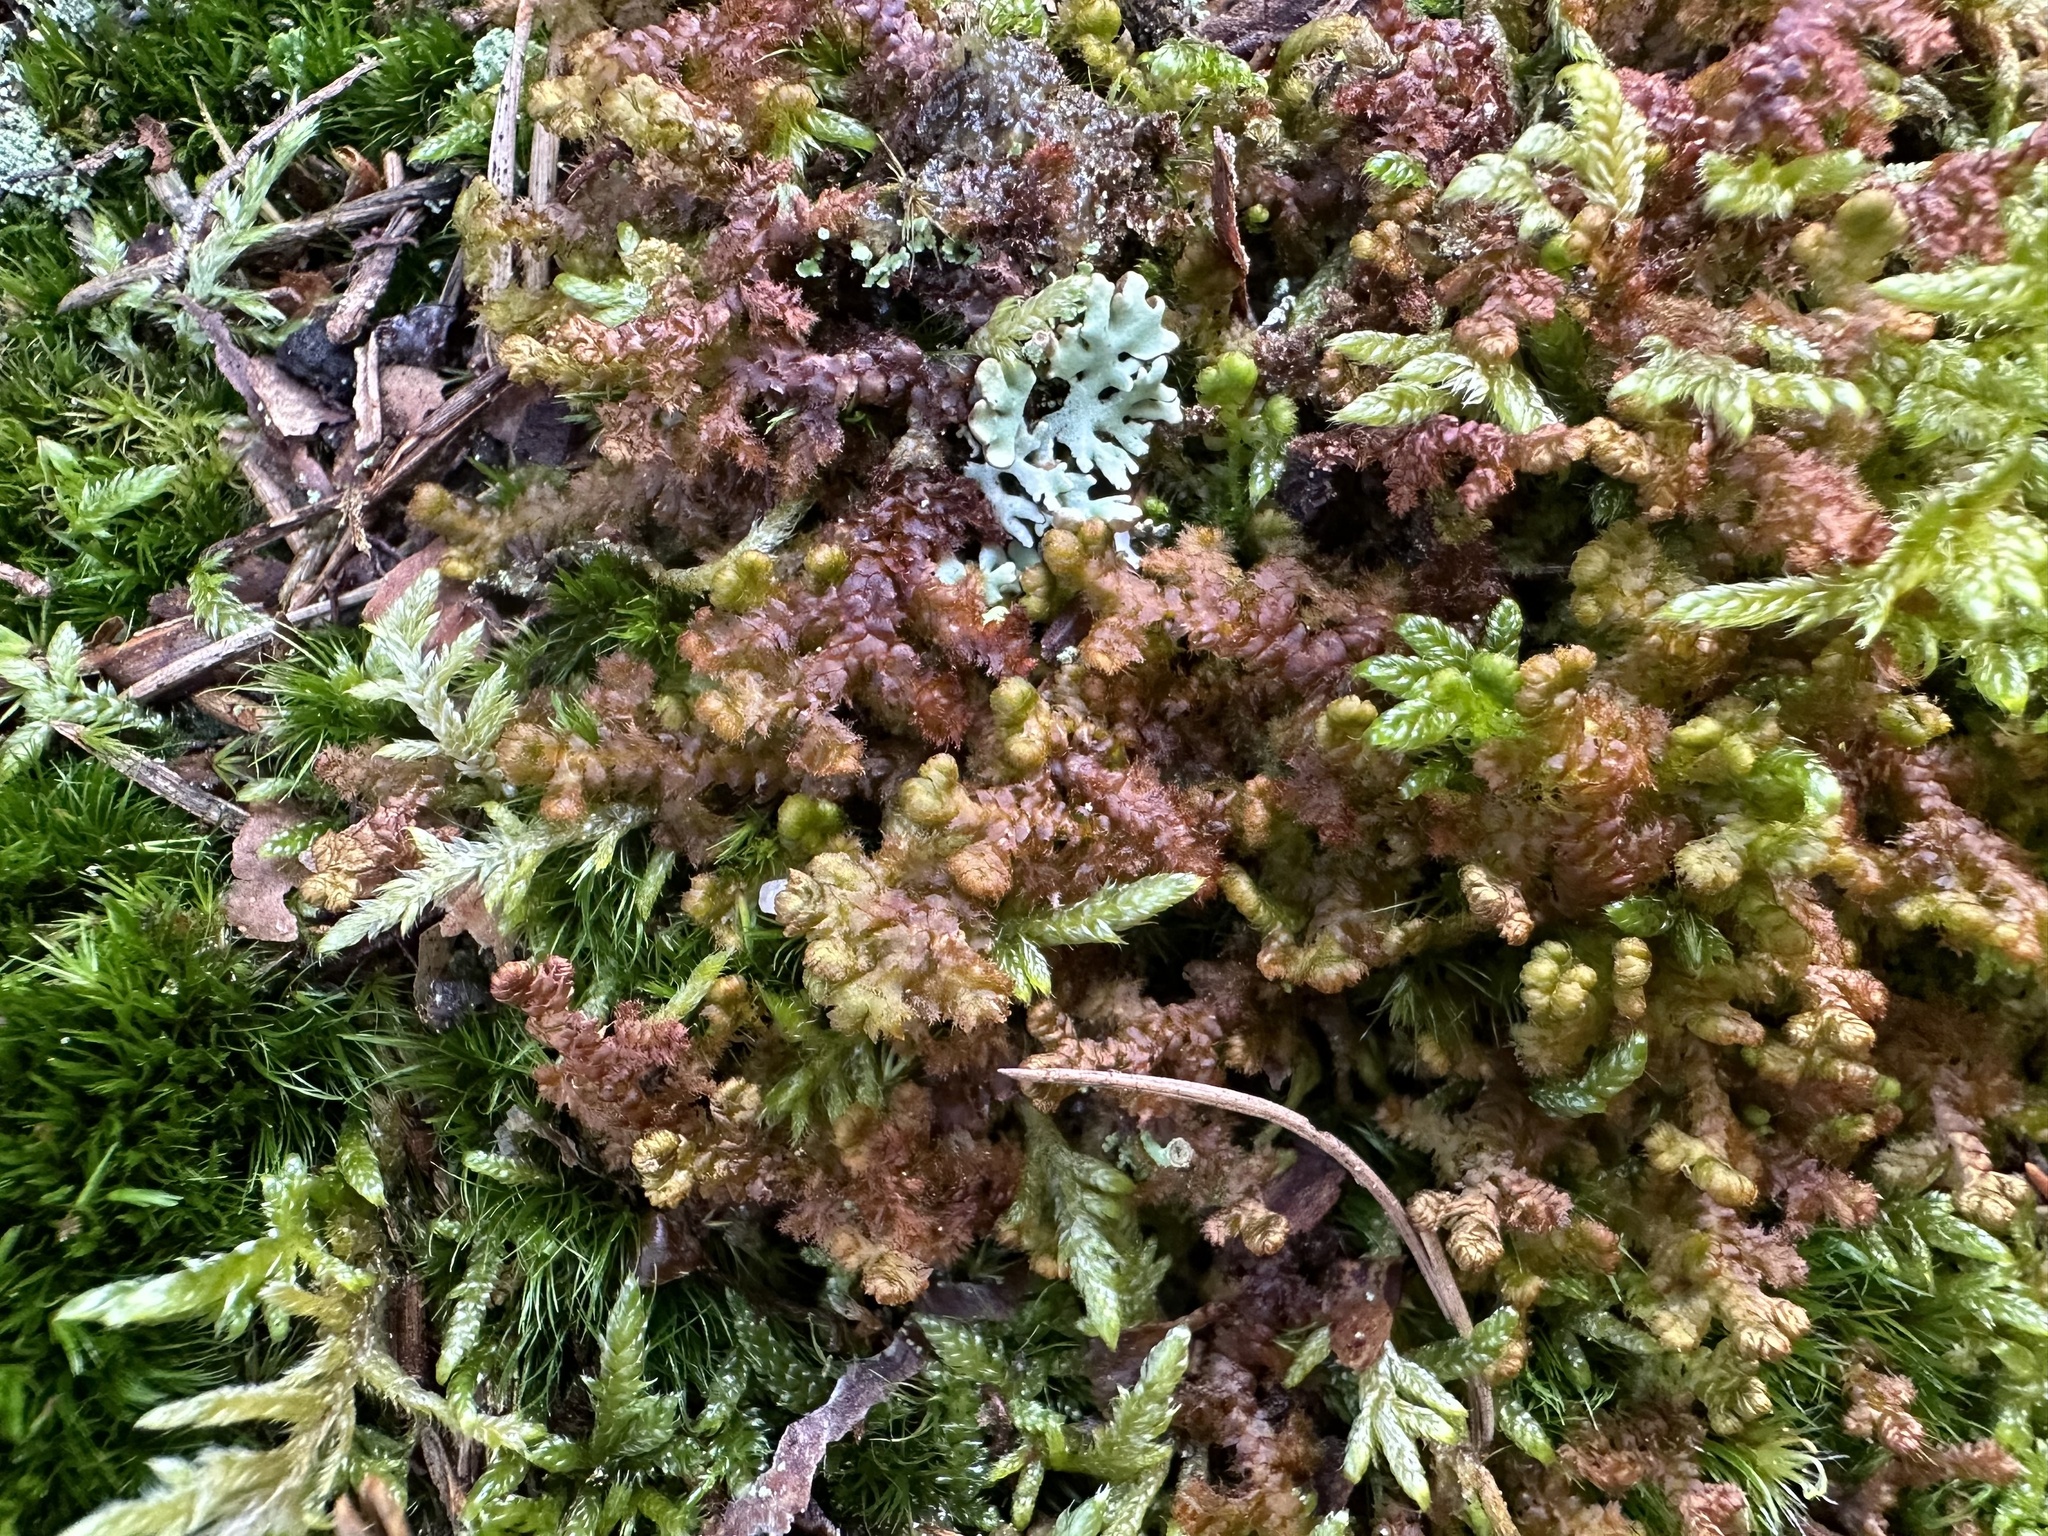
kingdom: Plantae
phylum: Marchantiophyta
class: Jungermanniopsida
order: Ptilidiales
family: Ptilidiaceae
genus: Ptilidium
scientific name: Ptilidium ciliare
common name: Ciliate fringewort
